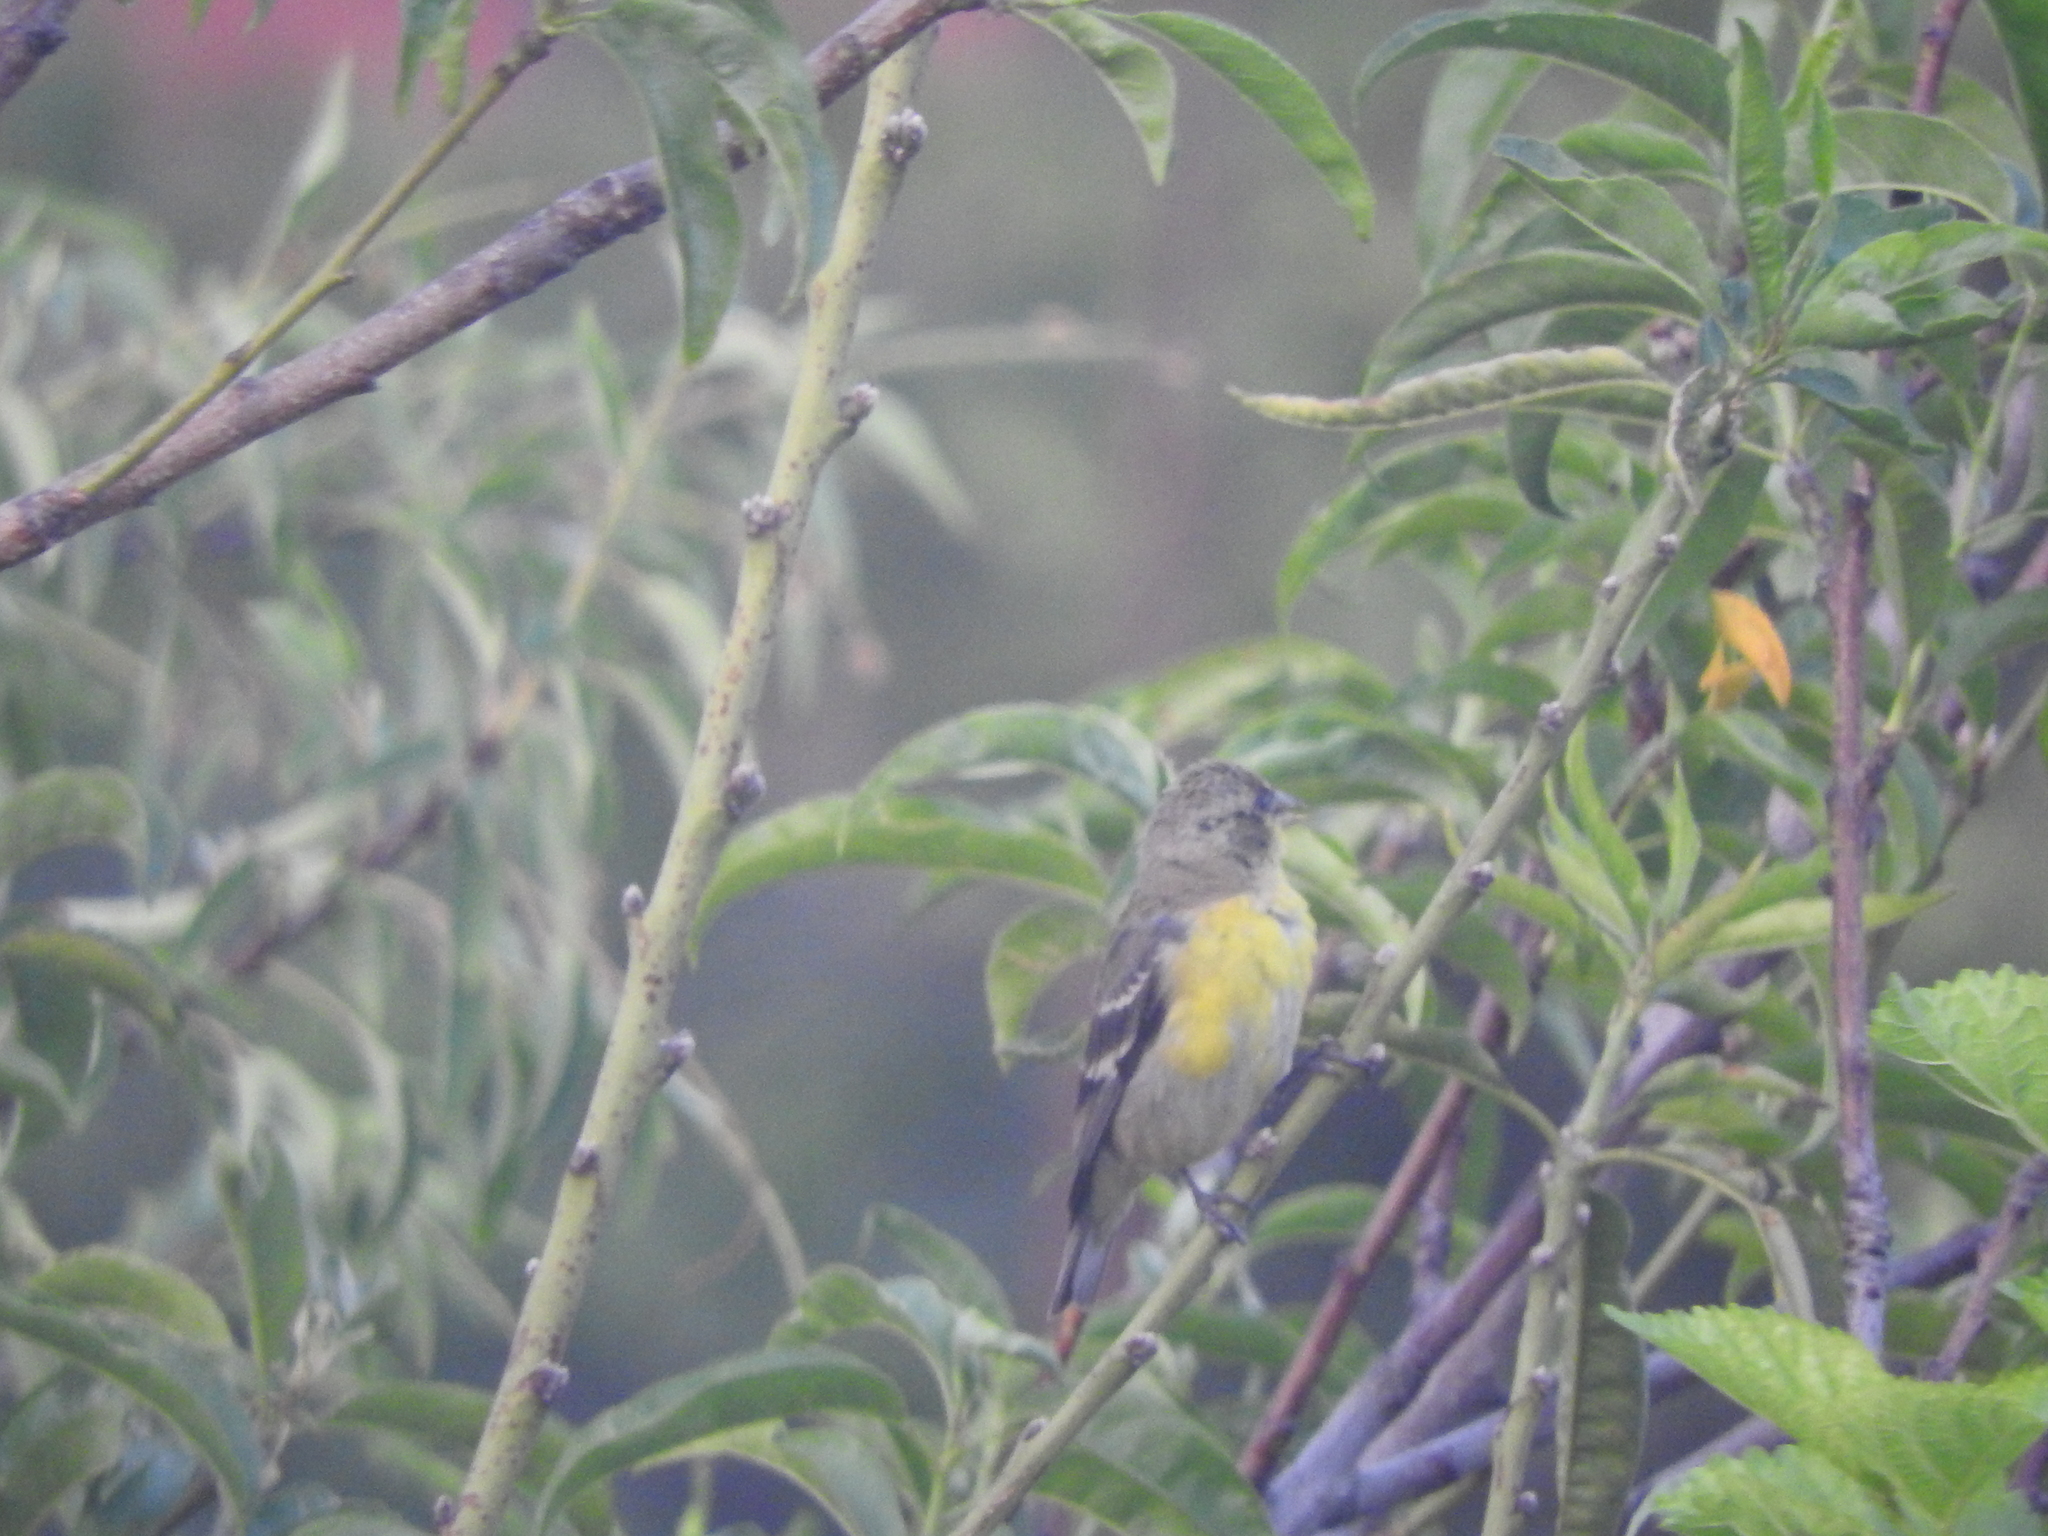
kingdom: Animalia
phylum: Chordata
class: Aves
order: Passeriformes
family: Fringillidae
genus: Spinus
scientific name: Spinus psaltria
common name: Lesser goldfinch
